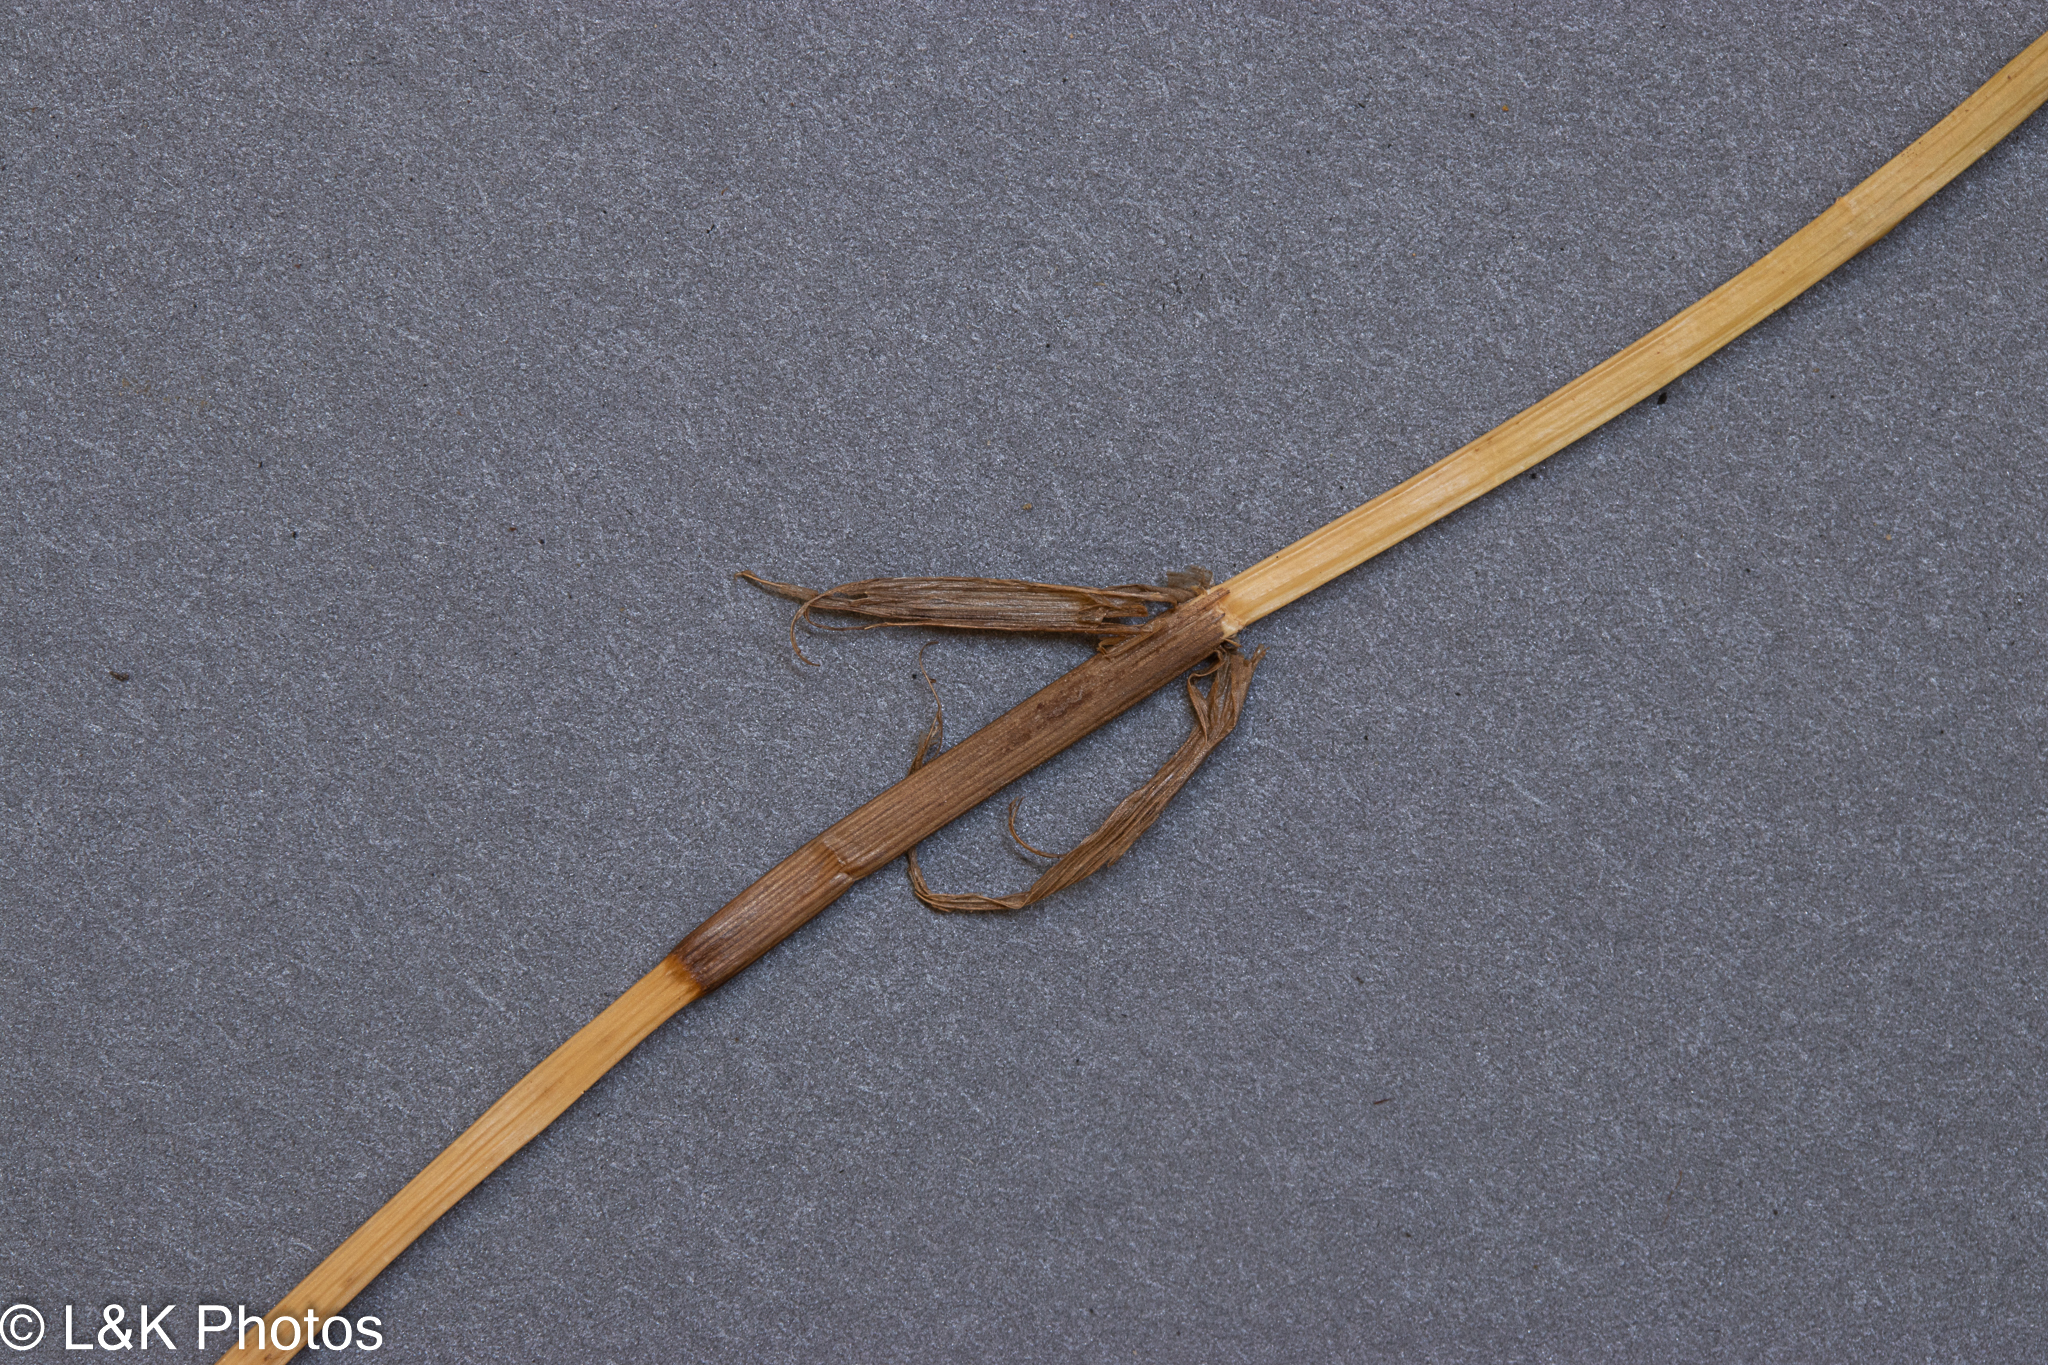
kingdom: Plantae
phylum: Tracheophyta
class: Liliopsida
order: Poales
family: Cyperaceae
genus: Carex
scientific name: Carex chordorrhiza
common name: String sedge
